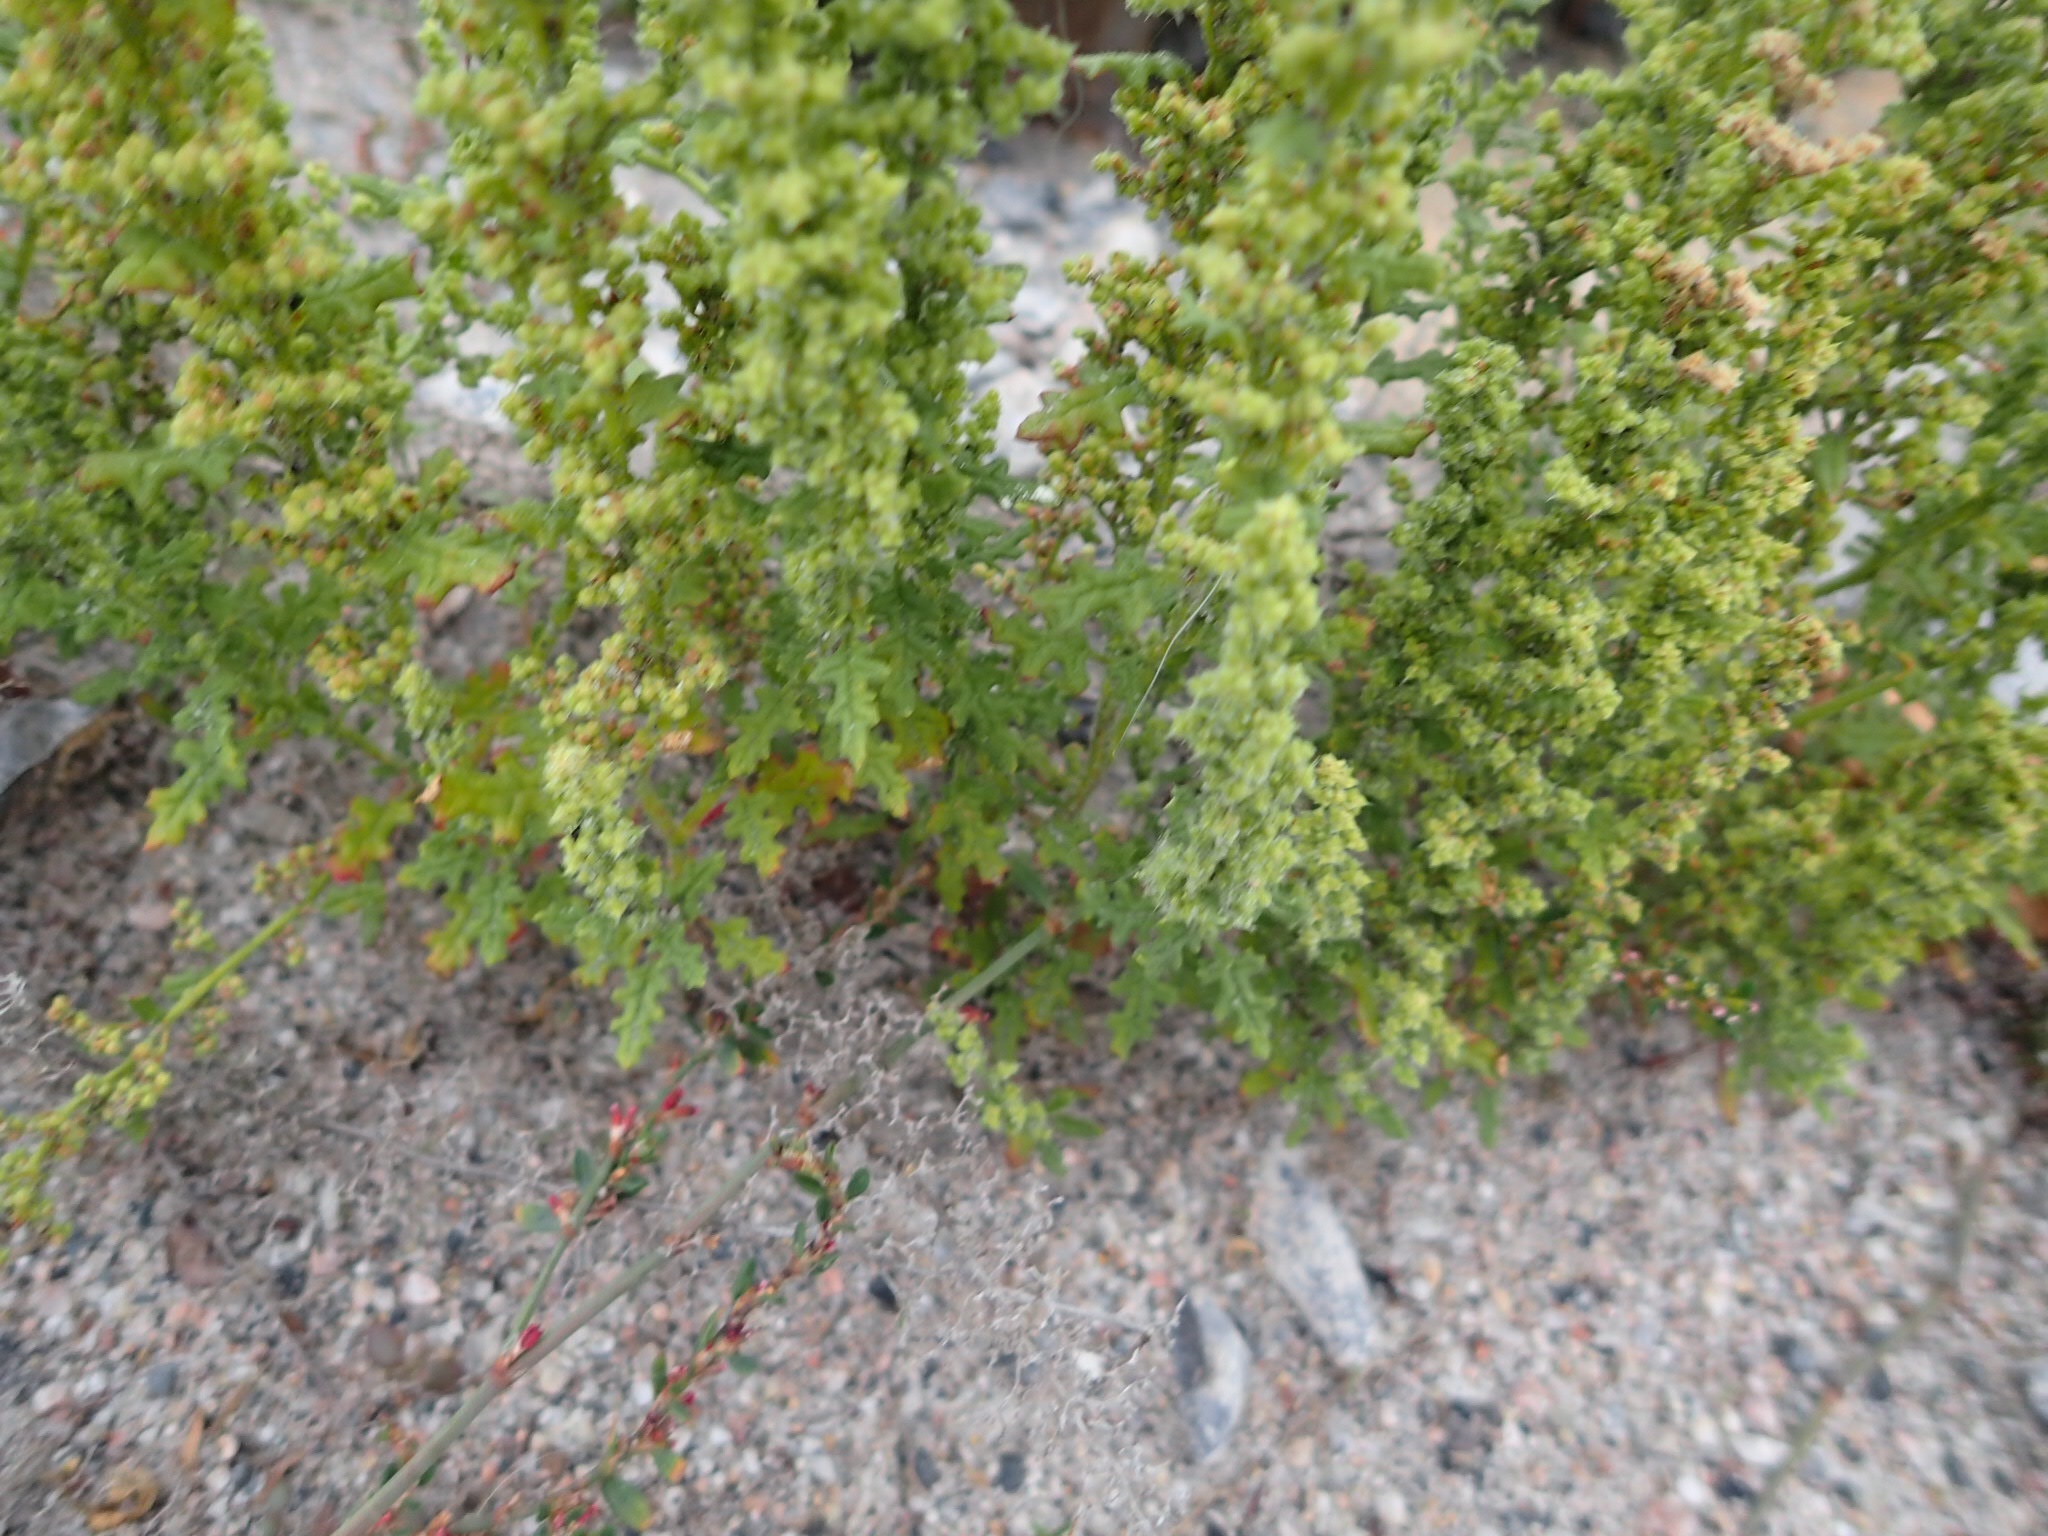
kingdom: Plantae
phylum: Tracheophyta
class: Magnoliopsida
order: Caryophyllales
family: Amaranthaceae
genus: Dysphania
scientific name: Dysphania botrys
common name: Feather-geranium
